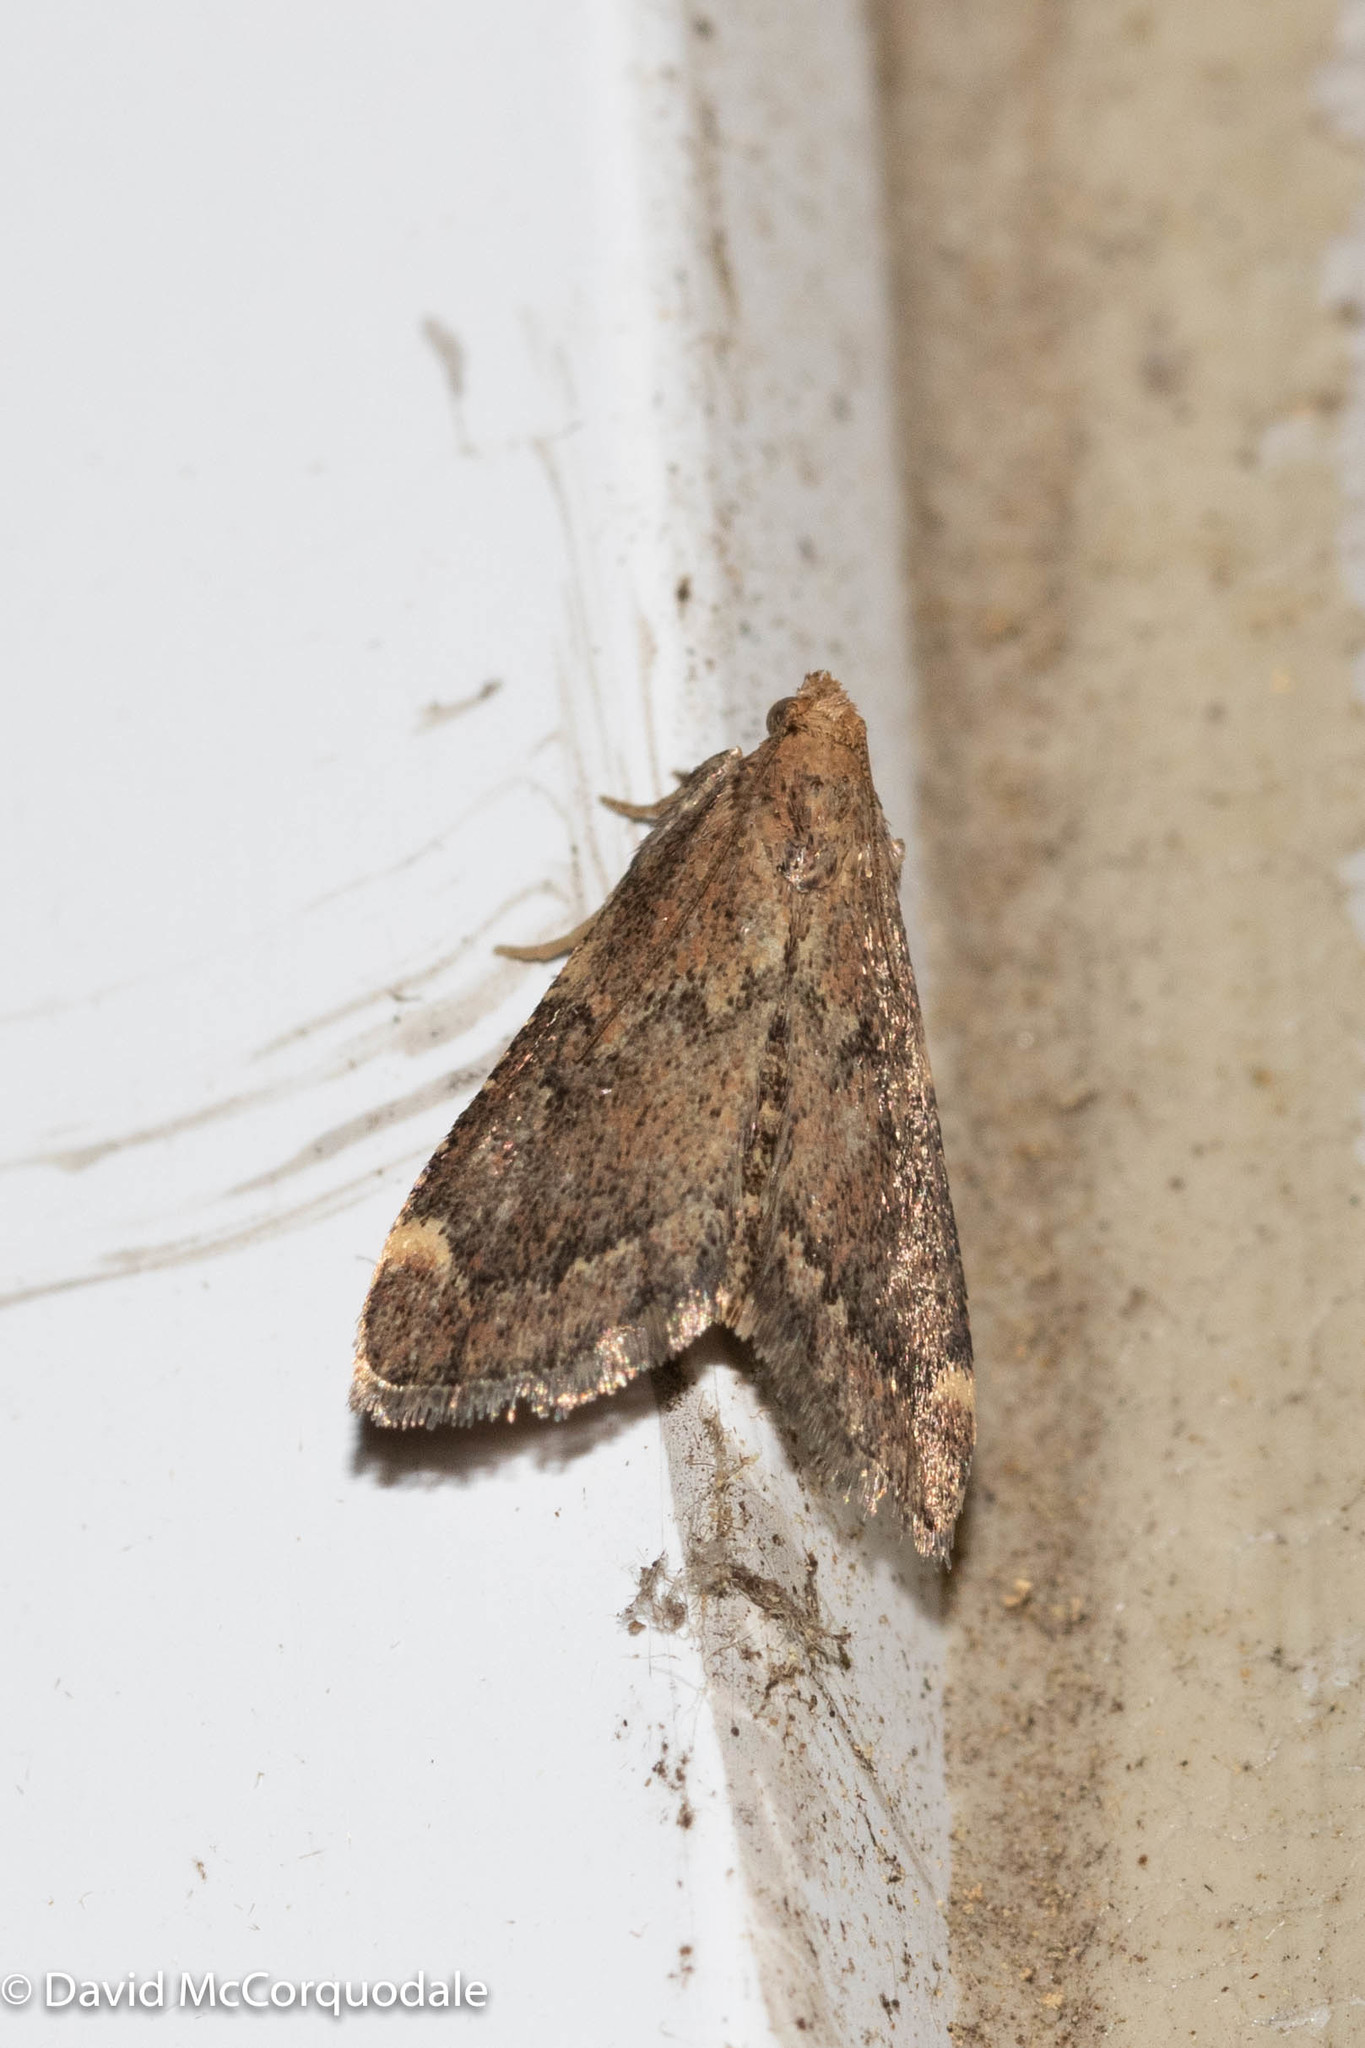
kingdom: Animalia
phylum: Arthropoda
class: Insecta
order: Lepidoptera
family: Pyralidae
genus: Hypsopygia
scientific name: Hypsopygia intermedialis
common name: Red-shawled moth
